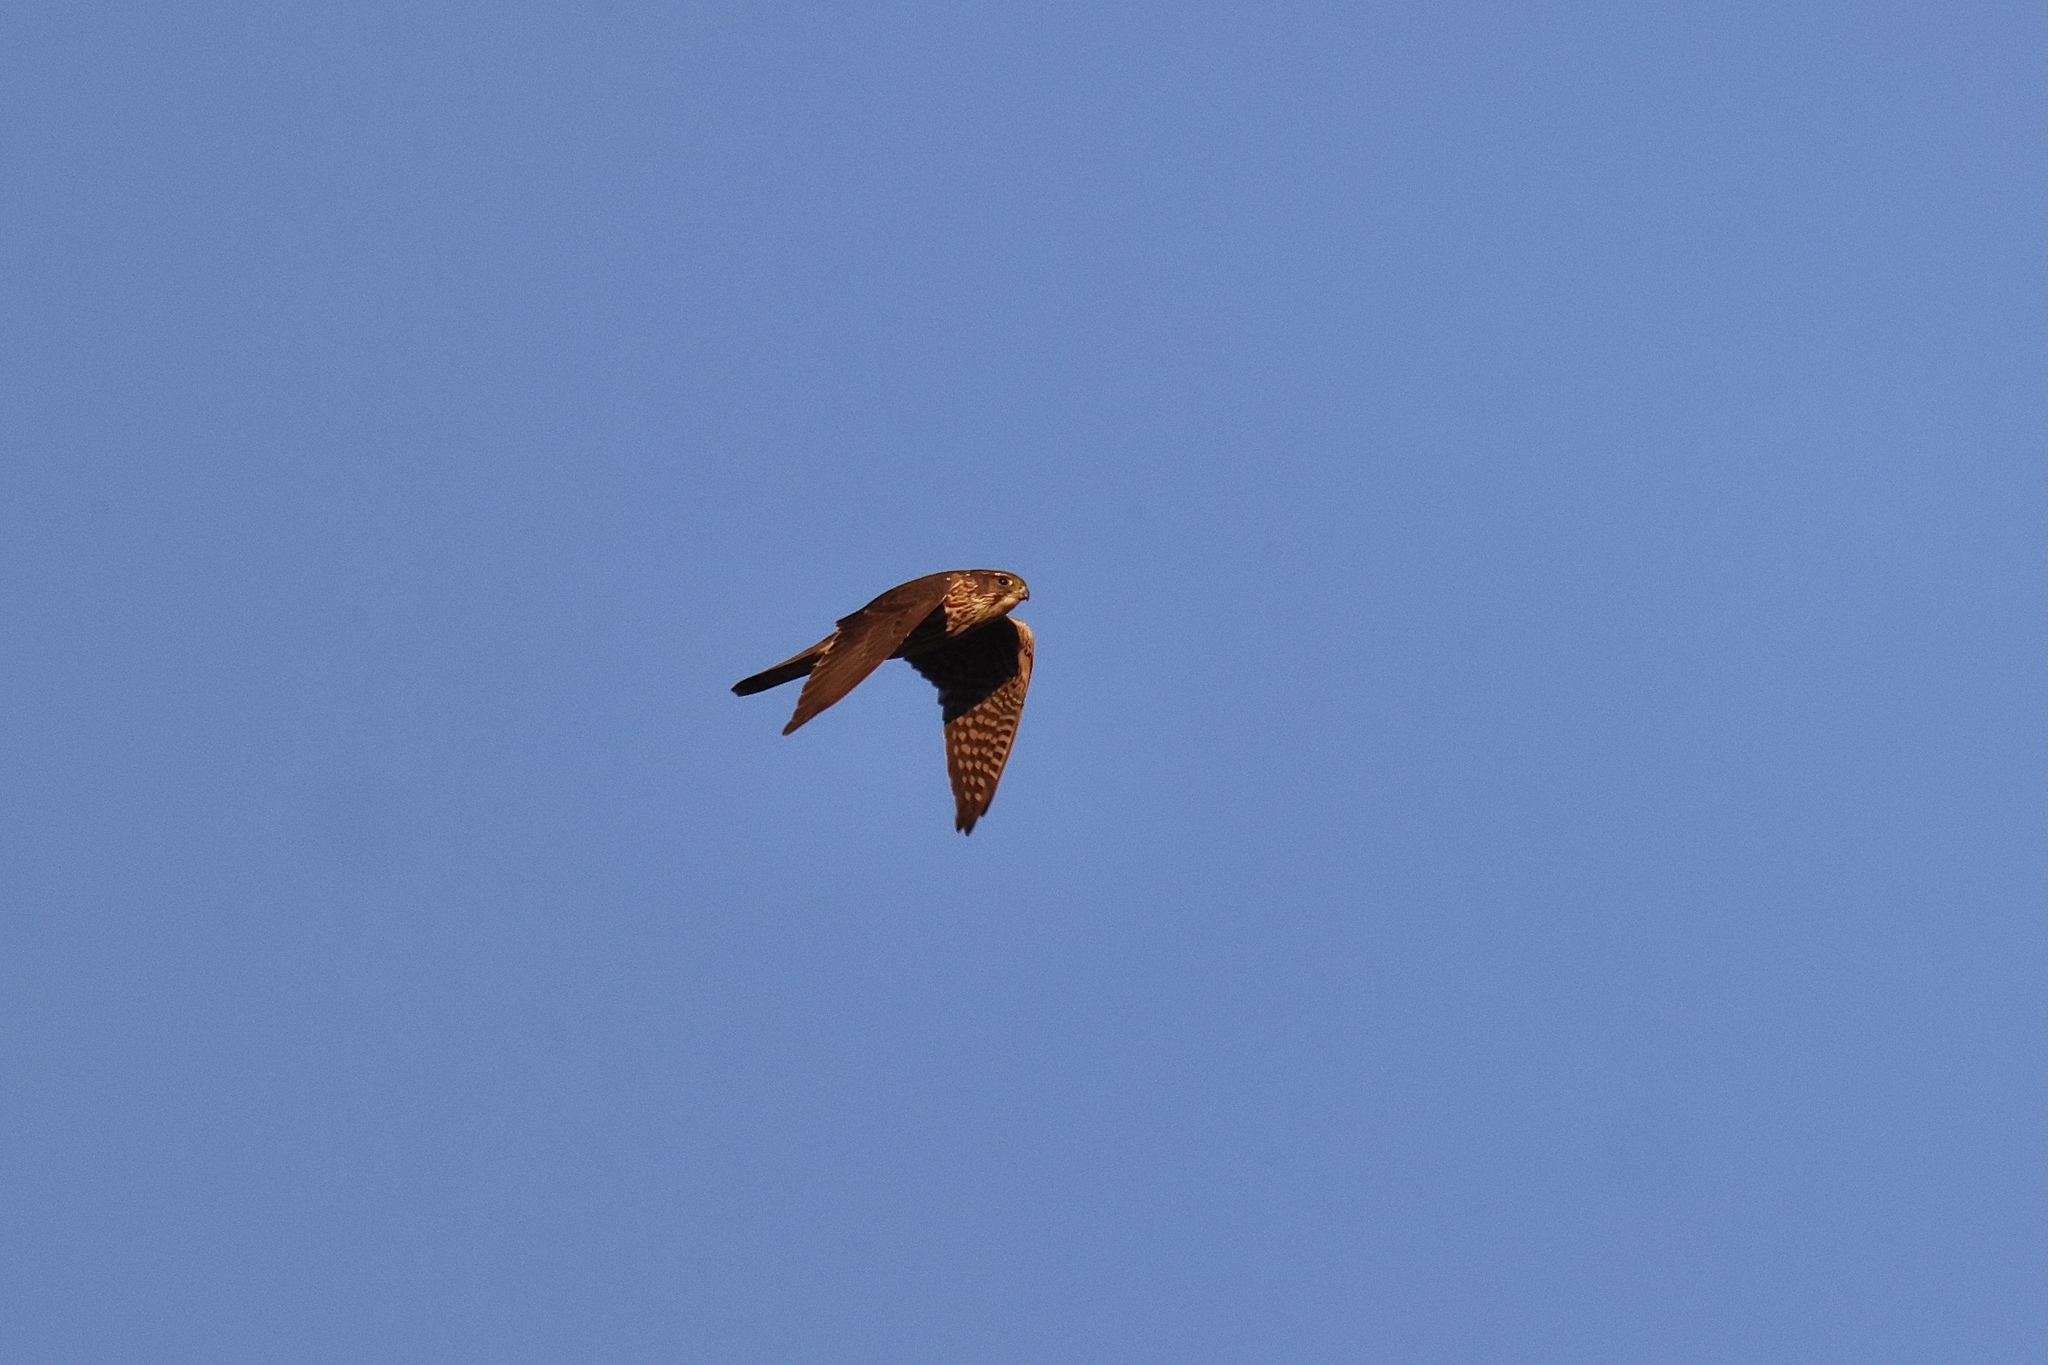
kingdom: Animalia
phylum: Chordata
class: Aves
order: Falconiformes
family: Falconidae
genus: Falco
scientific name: Falco columbarius
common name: Merlin
